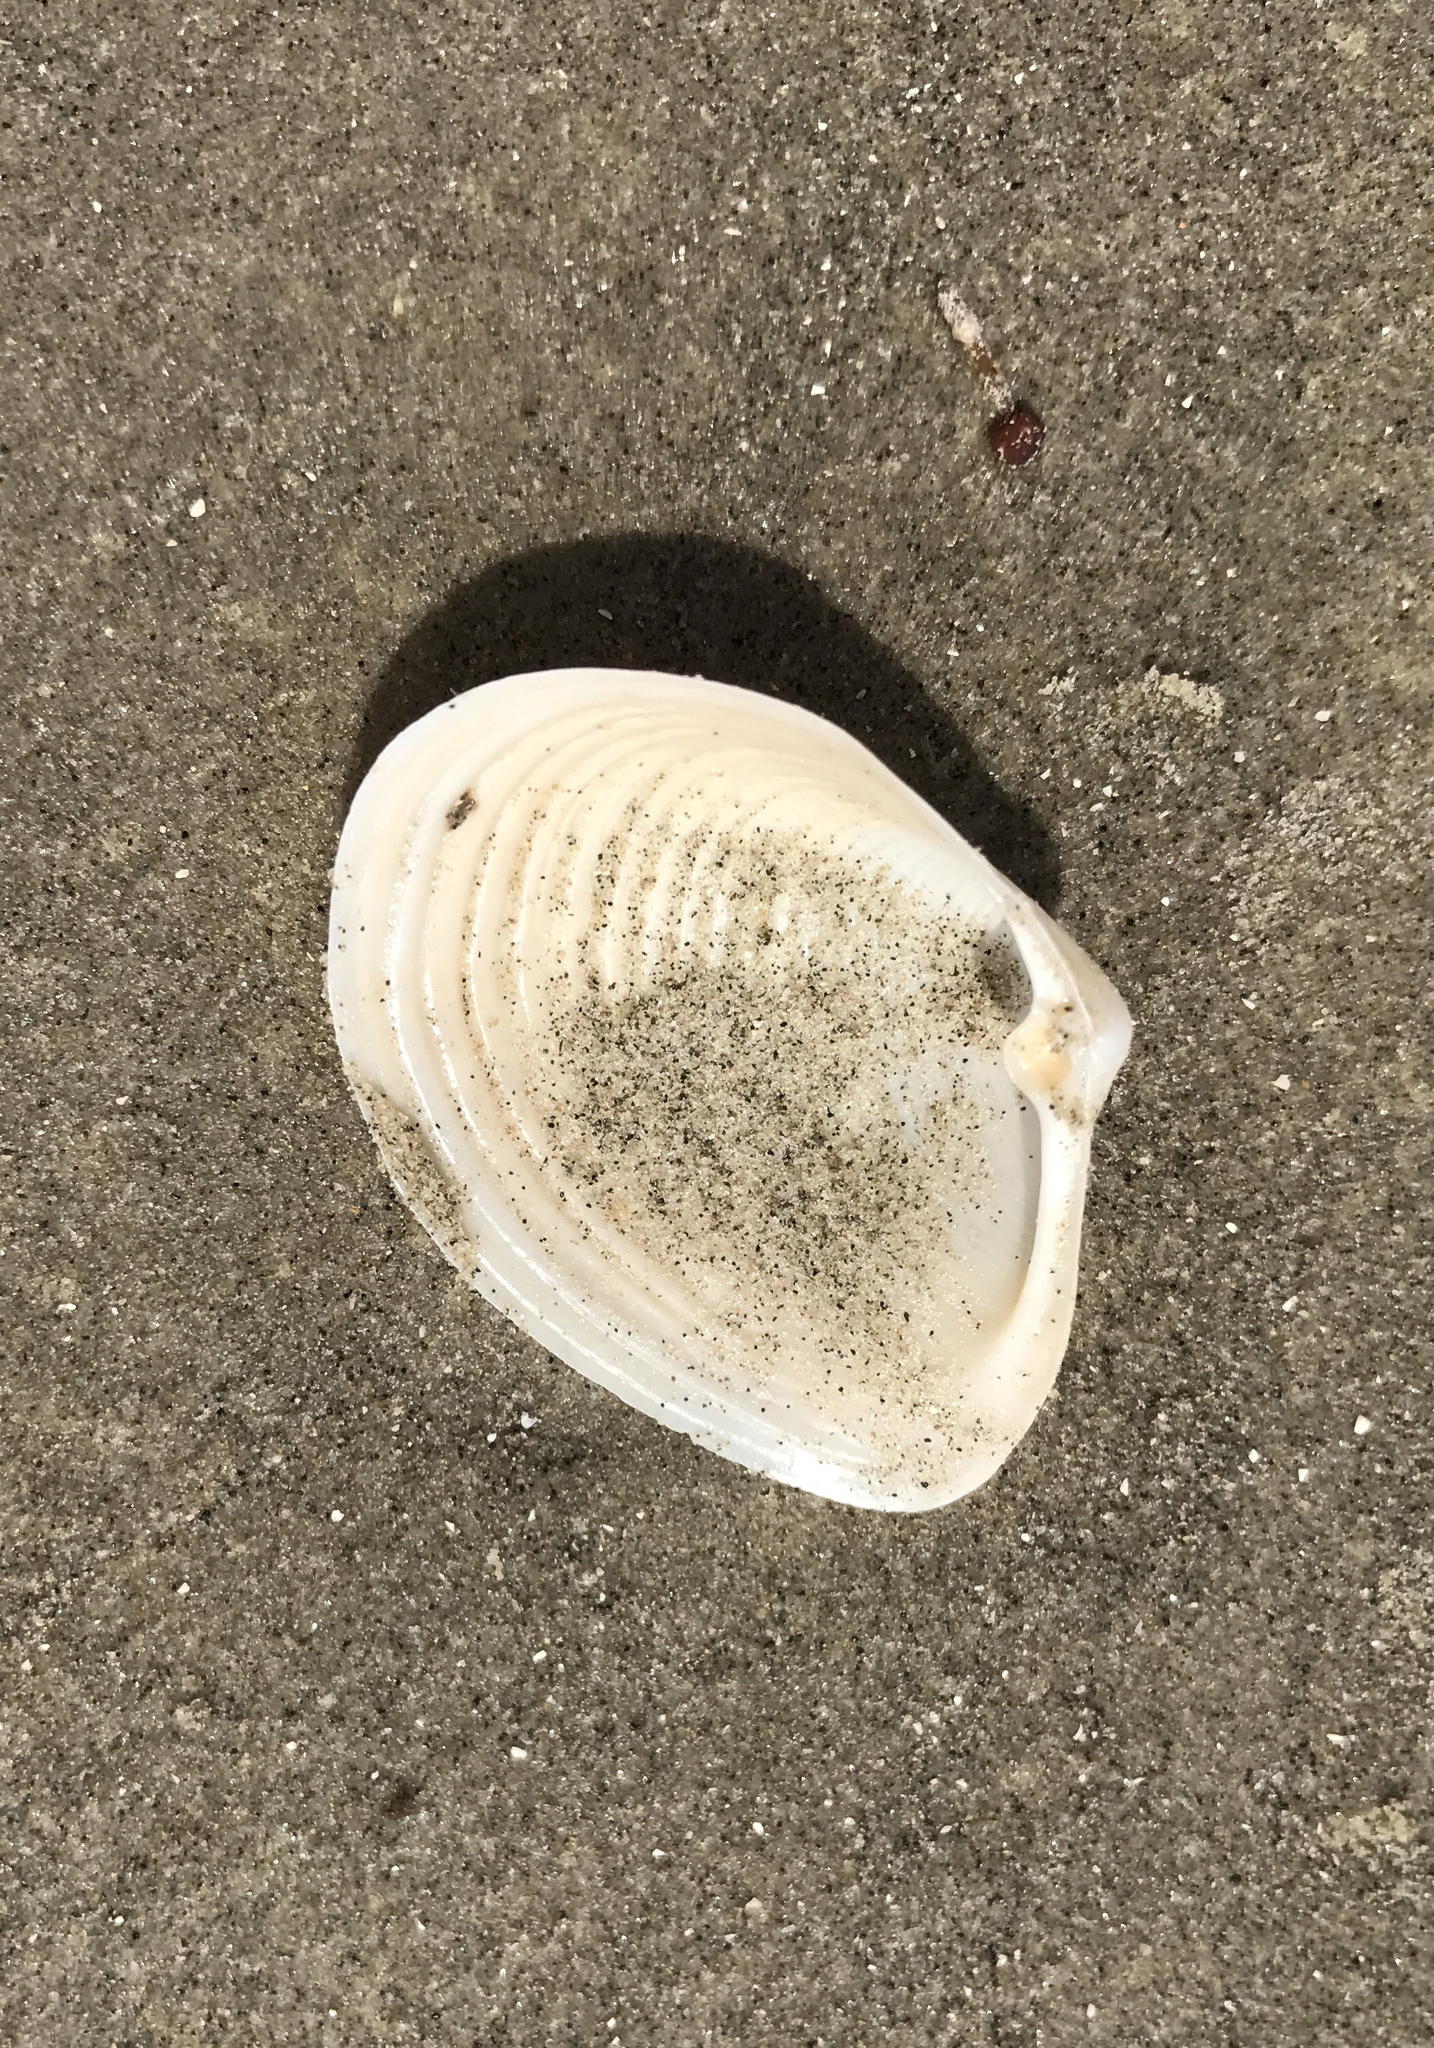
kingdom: Animalia
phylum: Mollusca
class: Bivalvia
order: Venerida
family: Anatinellidae
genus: Raeta
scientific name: Raeta plicatella
